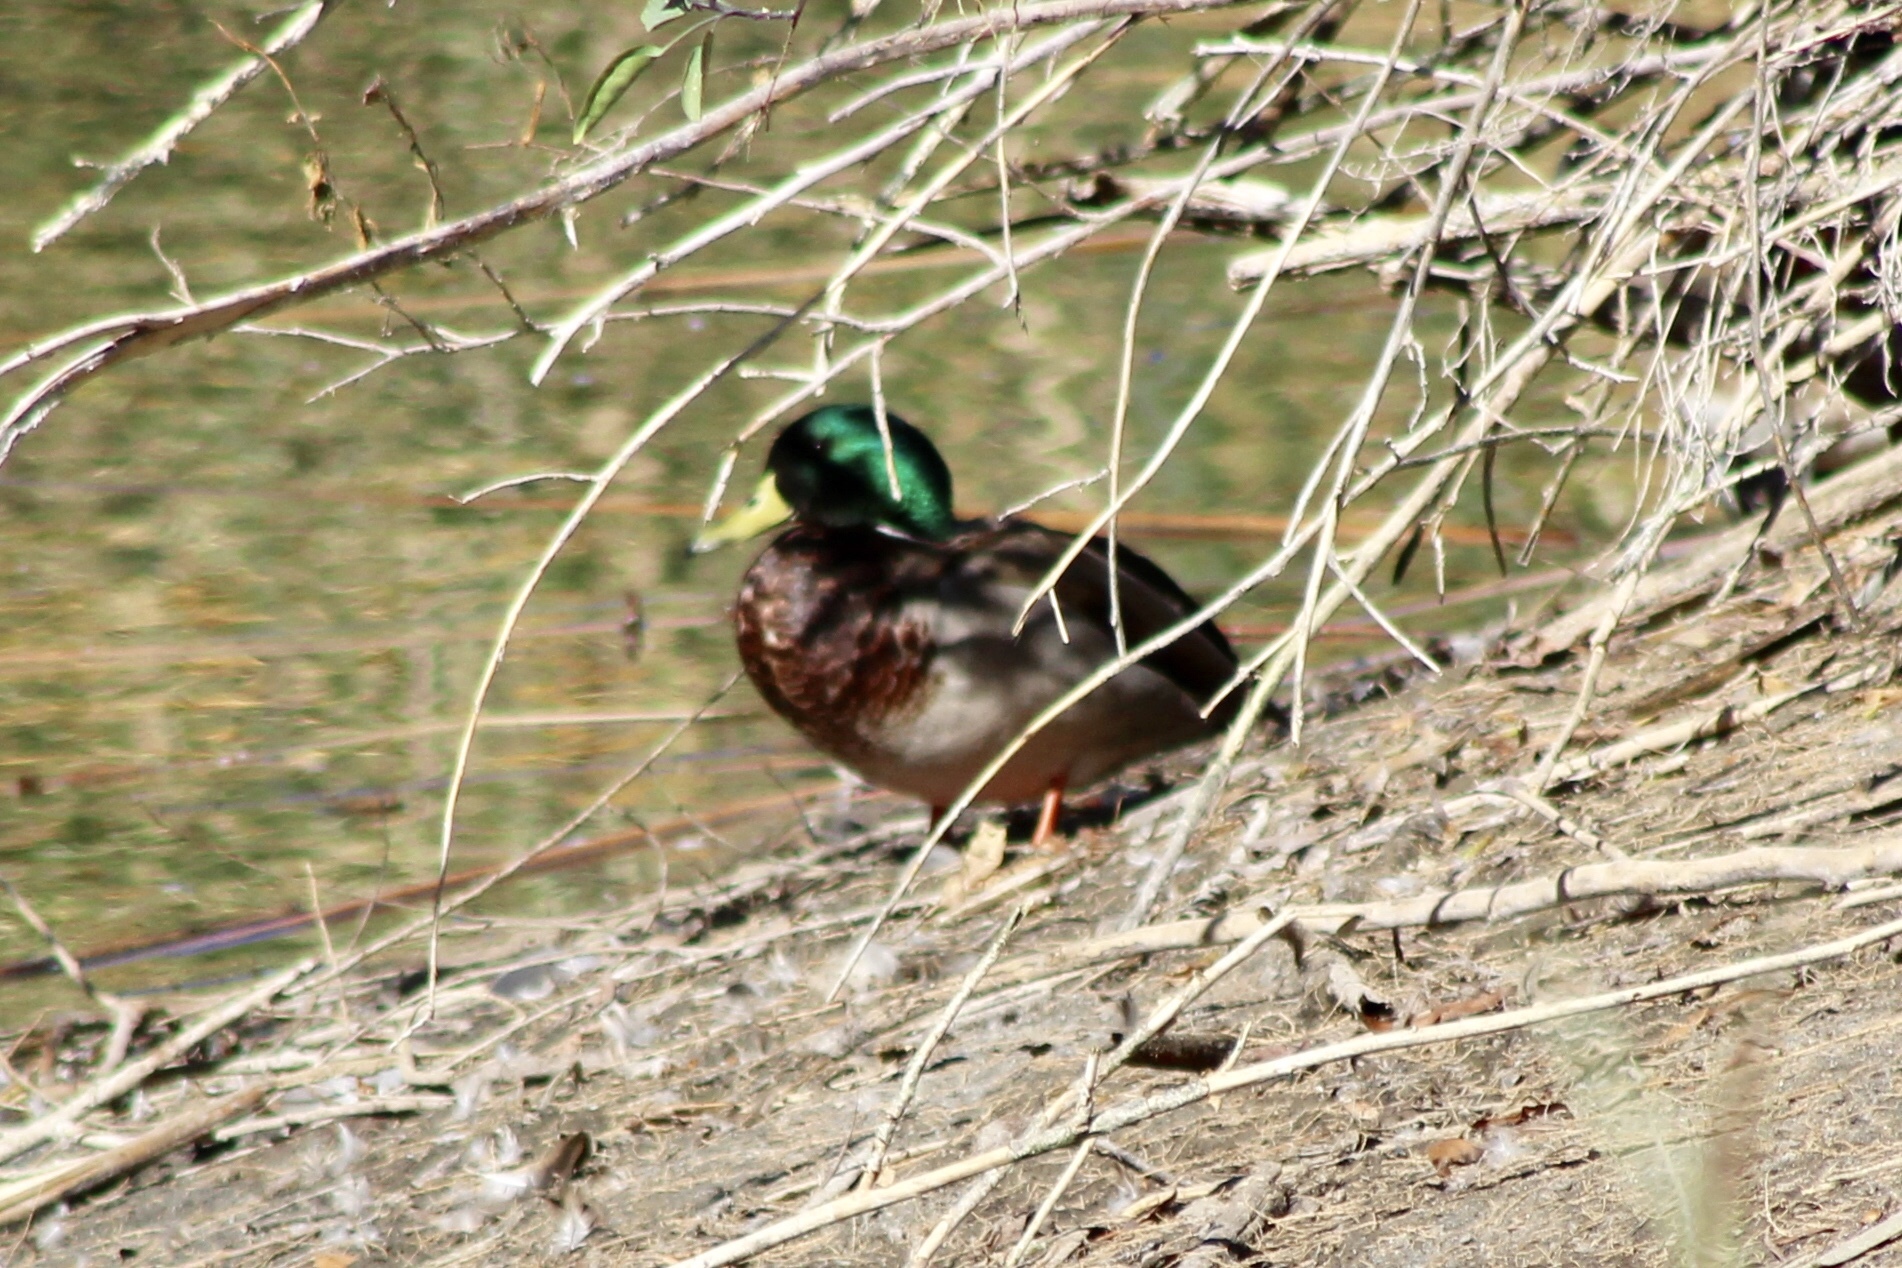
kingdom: Animalia
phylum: Chordata
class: Aves
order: Anseriformes
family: Anatidae
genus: Anas
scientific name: Anas platyrhynchos
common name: Mallard
